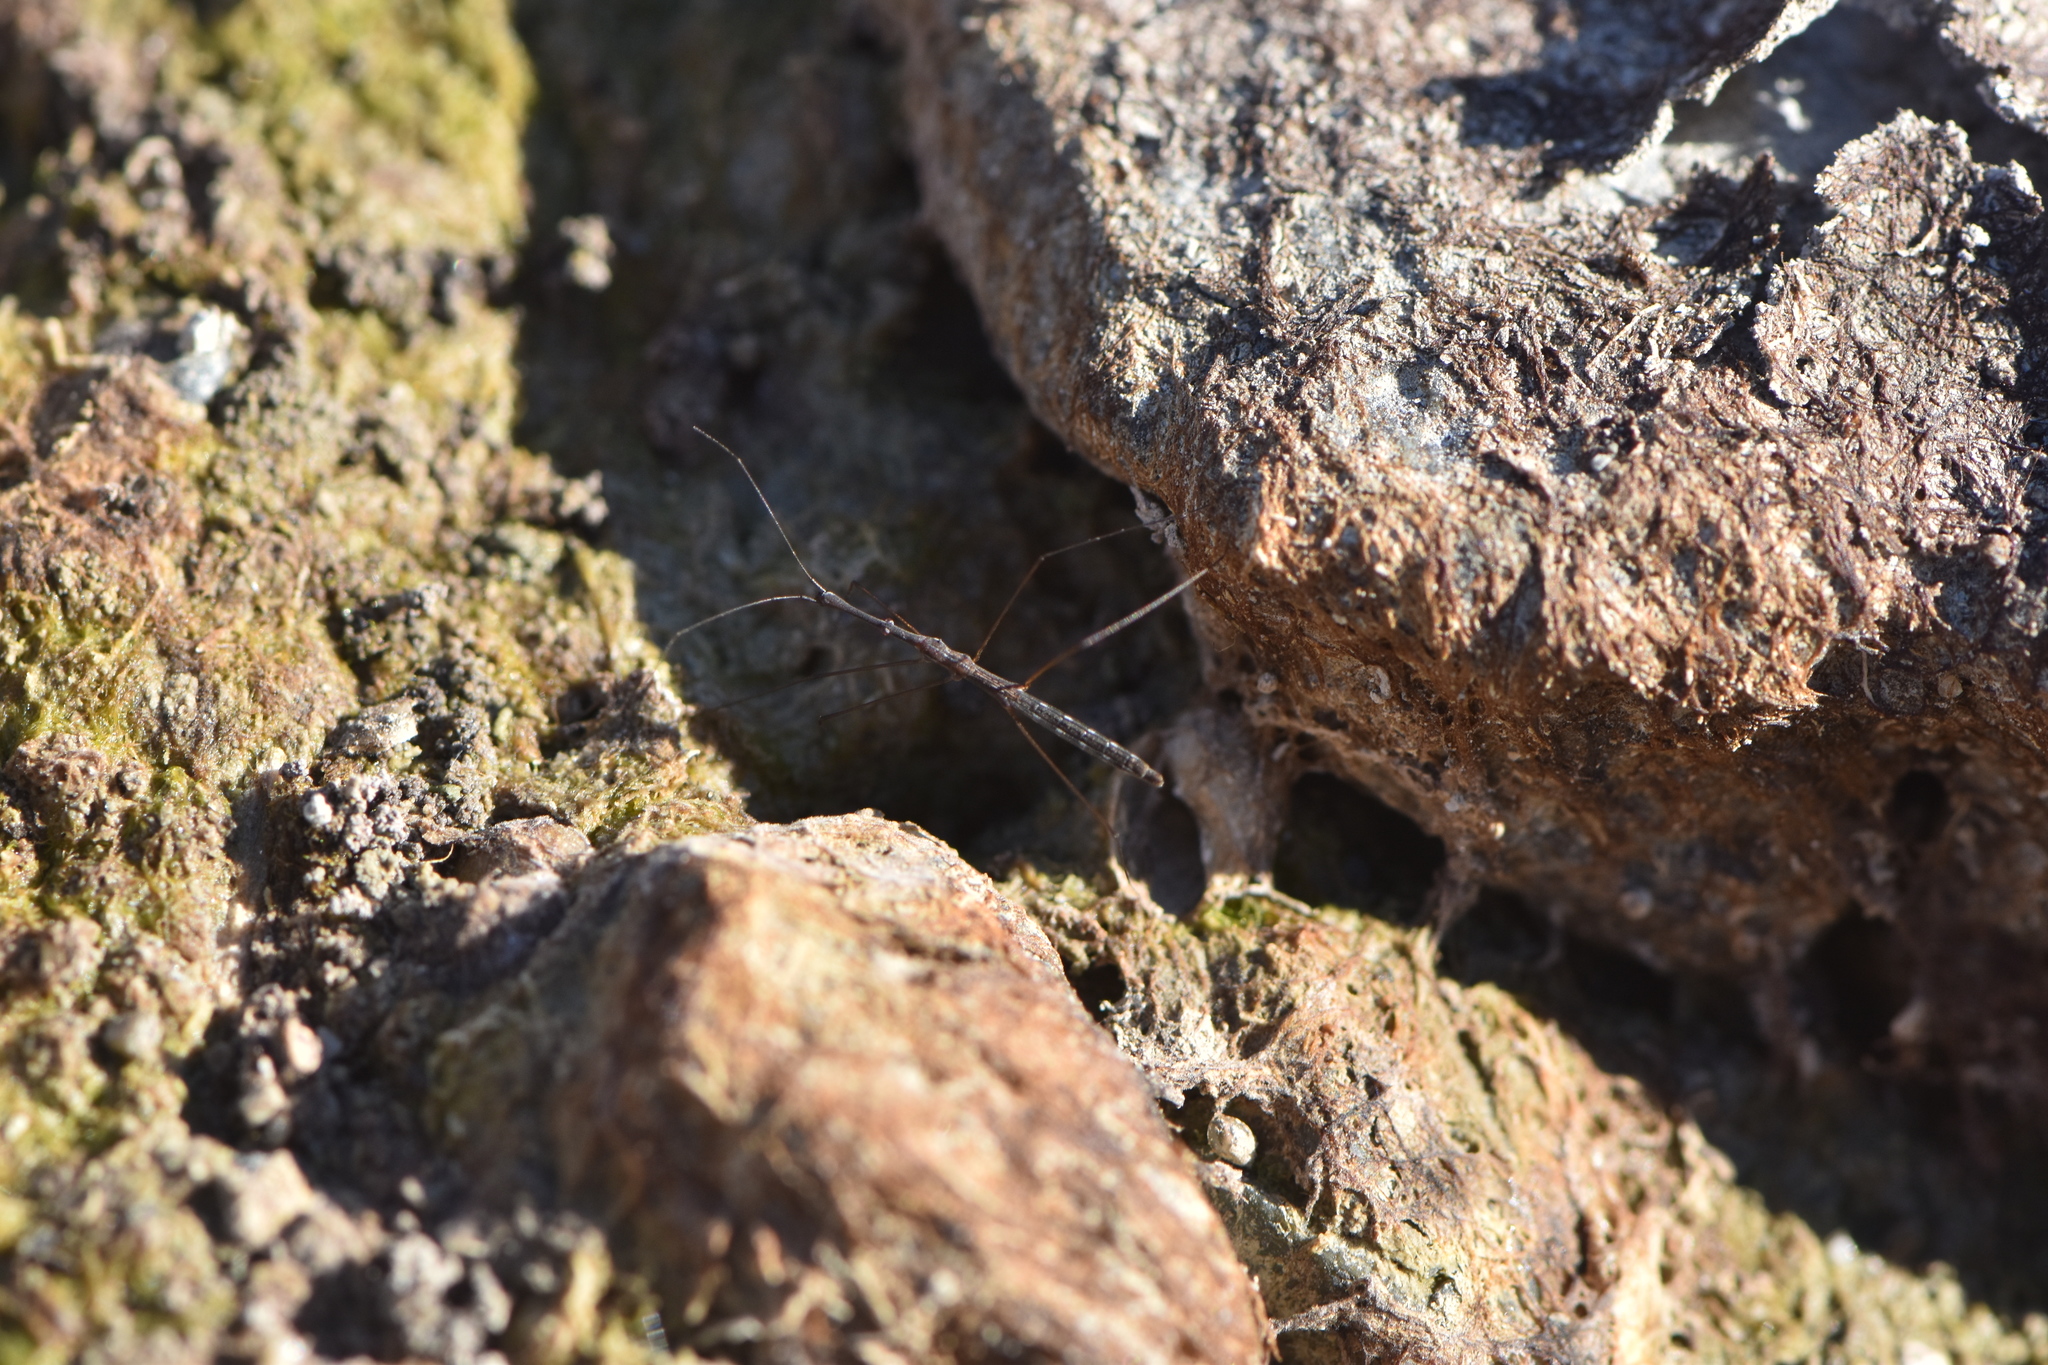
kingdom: Animalia
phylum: Arthropoda
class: Insecta
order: Hemiptera
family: Hydrometridae
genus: Hydrometra
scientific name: Hydrometra stagnorum
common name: Water measurer
